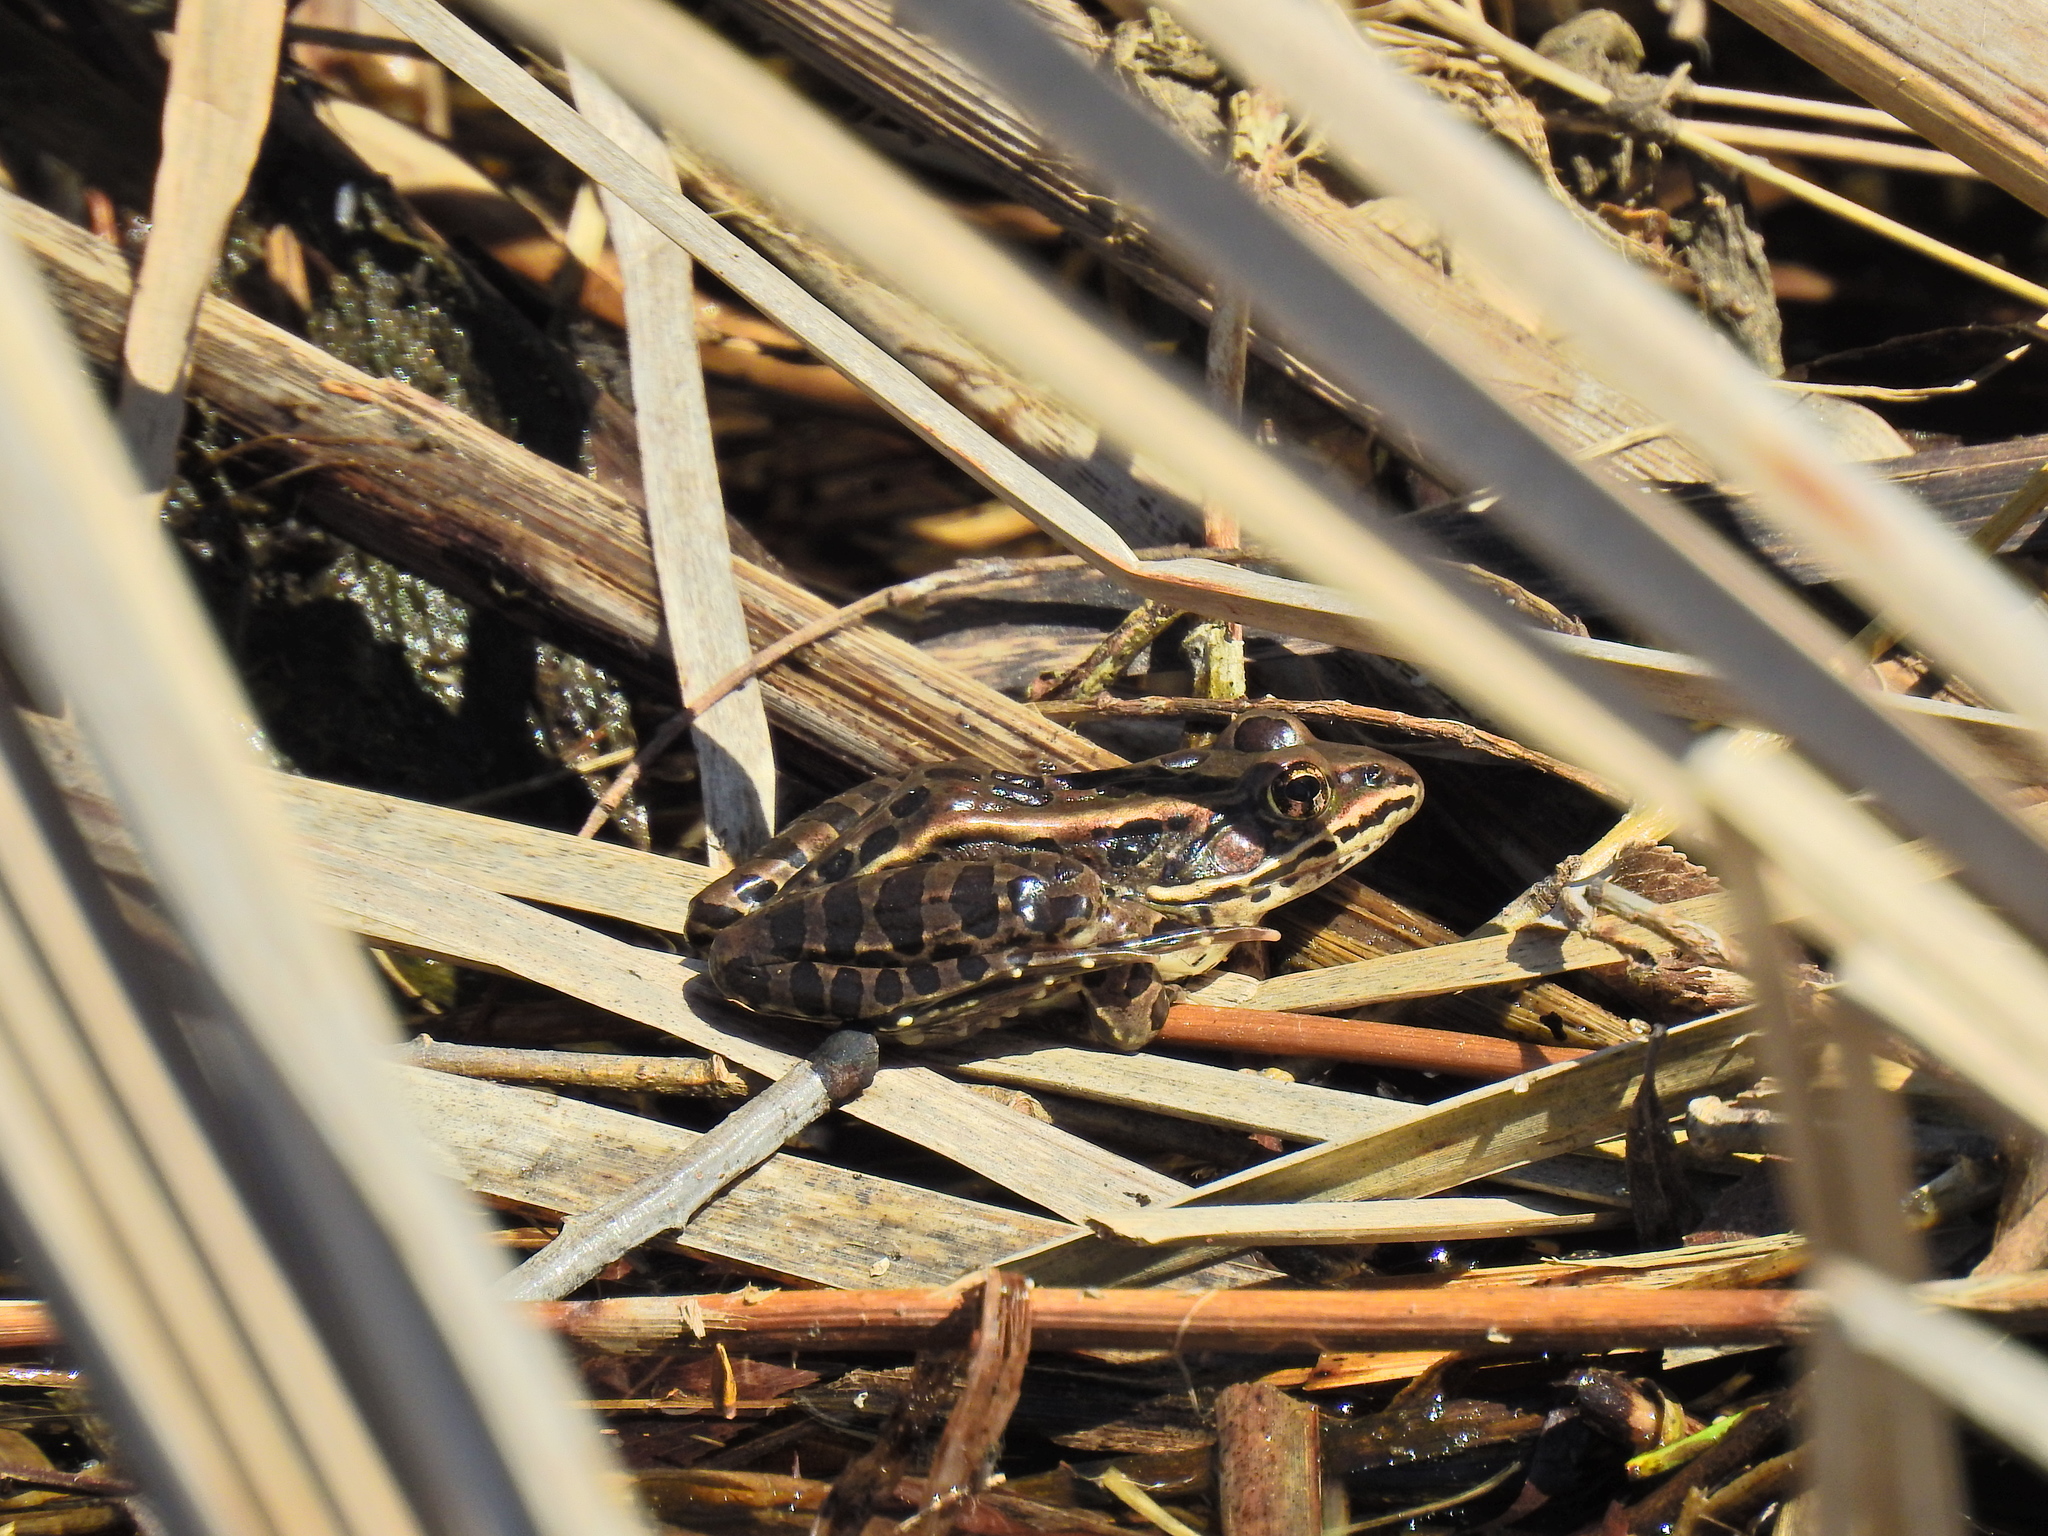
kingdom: Animalia
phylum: Chordata
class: Amphibia
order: Anura
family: Ranidae
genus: Lithobates
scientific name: Lithobates pipiens
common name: Northern leopard frog
